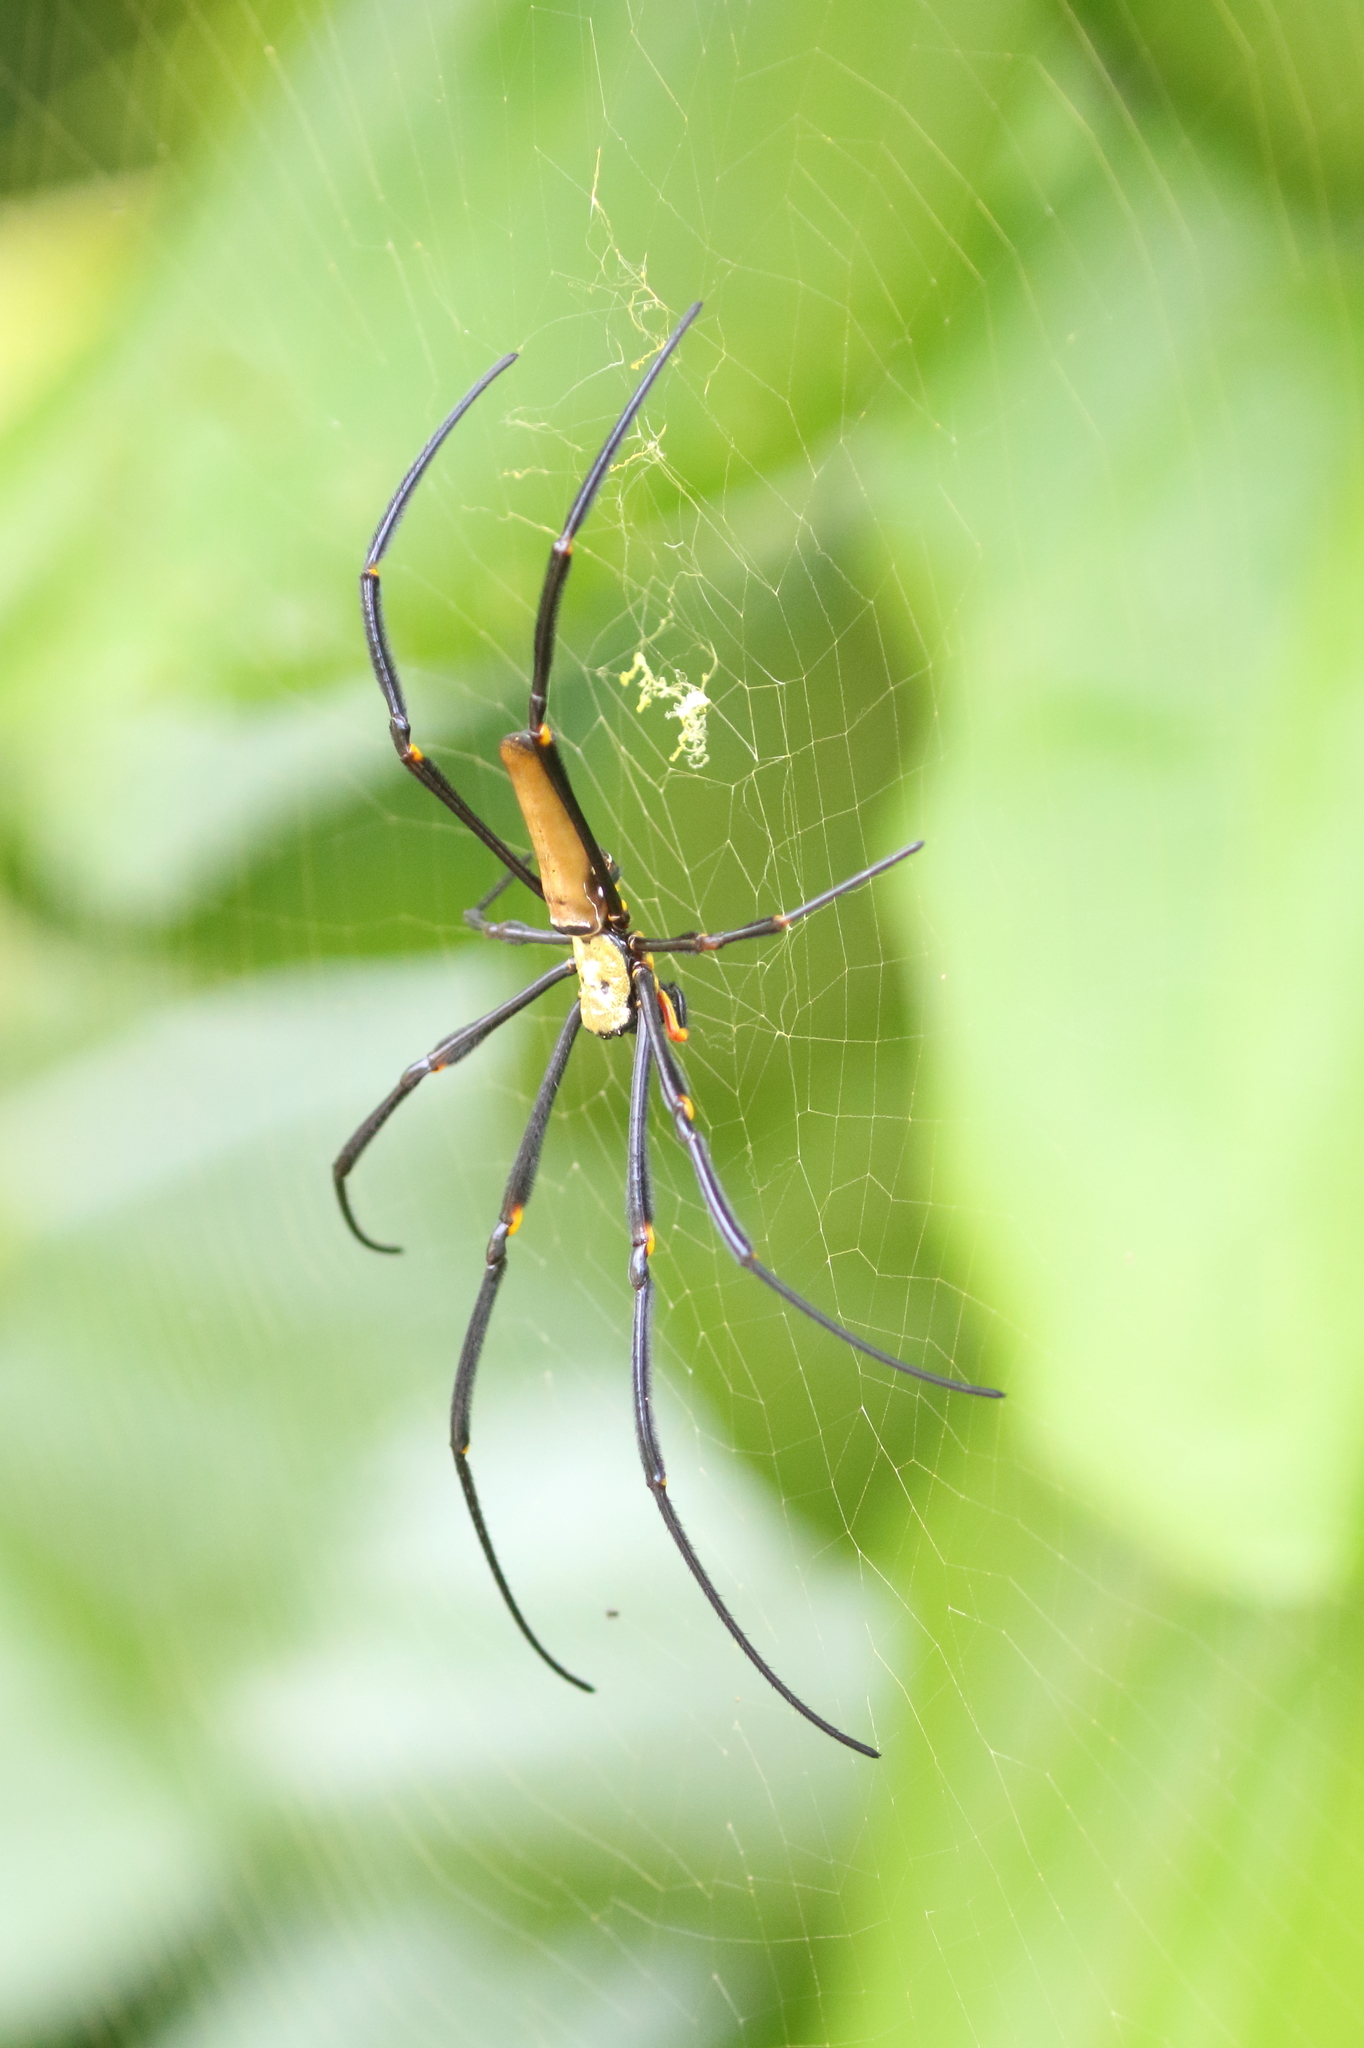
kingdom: Animalia
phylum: Arthropoda
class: Arachnida
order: Araneae
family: Araneidae
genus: Nephila
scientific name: Nephila pilipes
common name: Giant golden orb weaver
